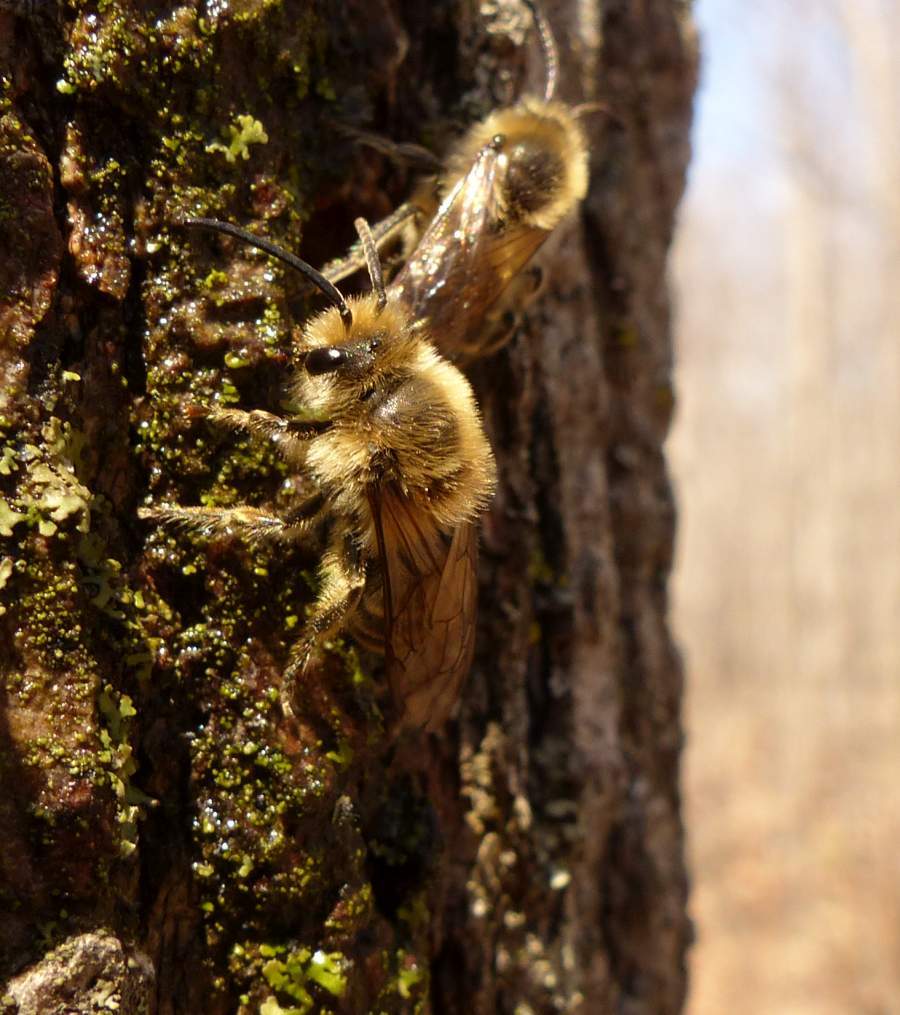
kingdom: Animalia
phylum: Arthropoda
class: Insecta
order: Hymenoptera
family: Colletidae
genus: Colletes
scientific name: Colletes inaequalis
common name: Unequal cellophane bee
